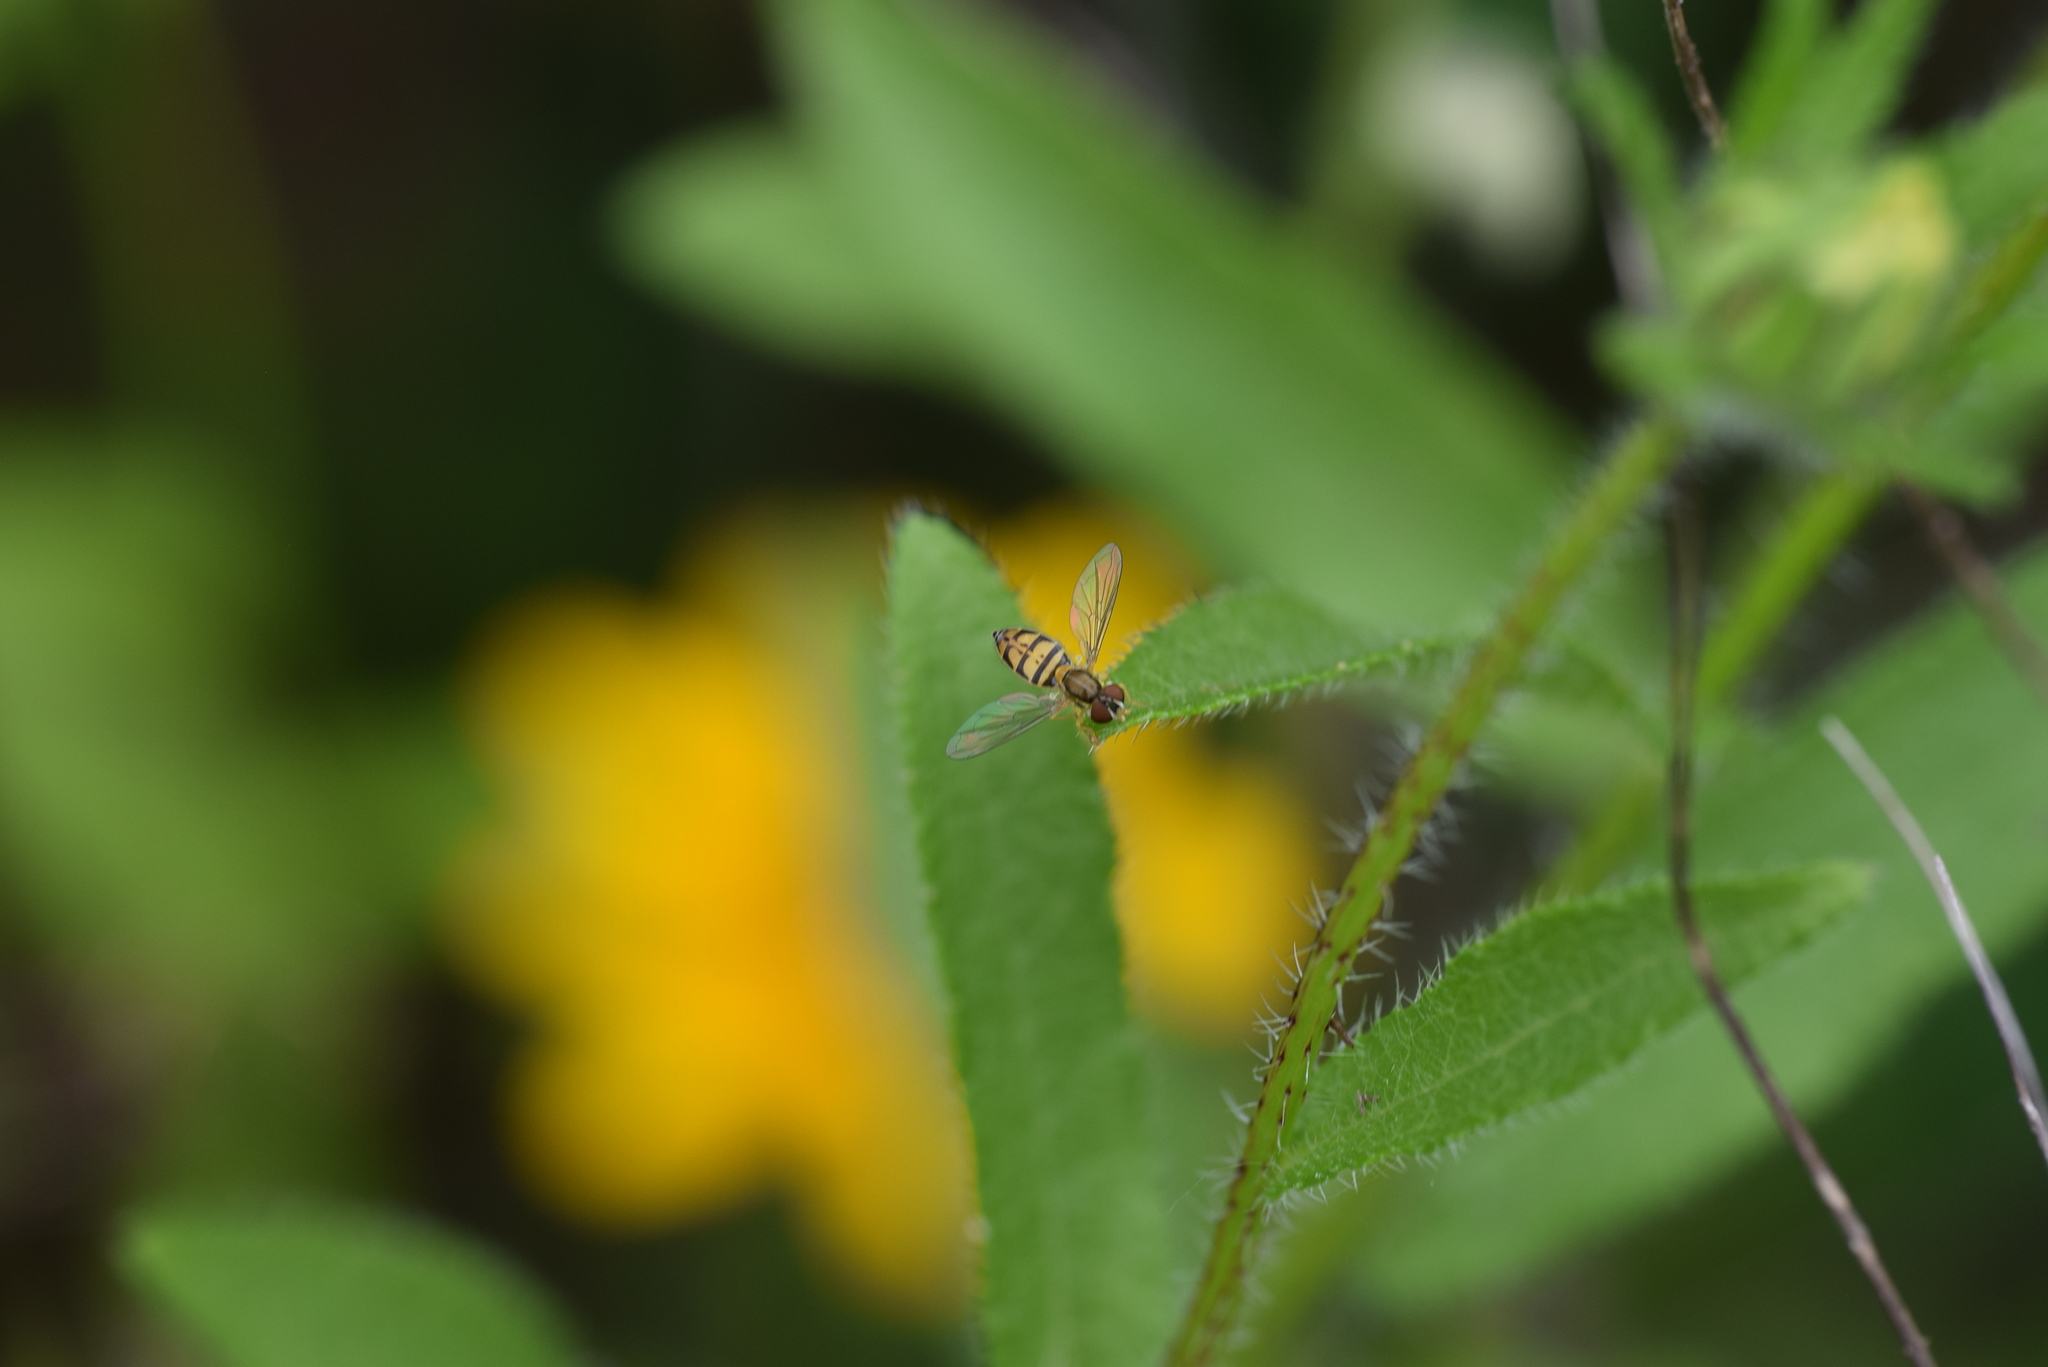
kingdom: Animalia
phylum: Arthropoda
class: Insecta
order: Diptera
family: Syrphidae
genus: Toxomerus
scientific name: Toxomerus marginatus
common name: Syrphid fly
